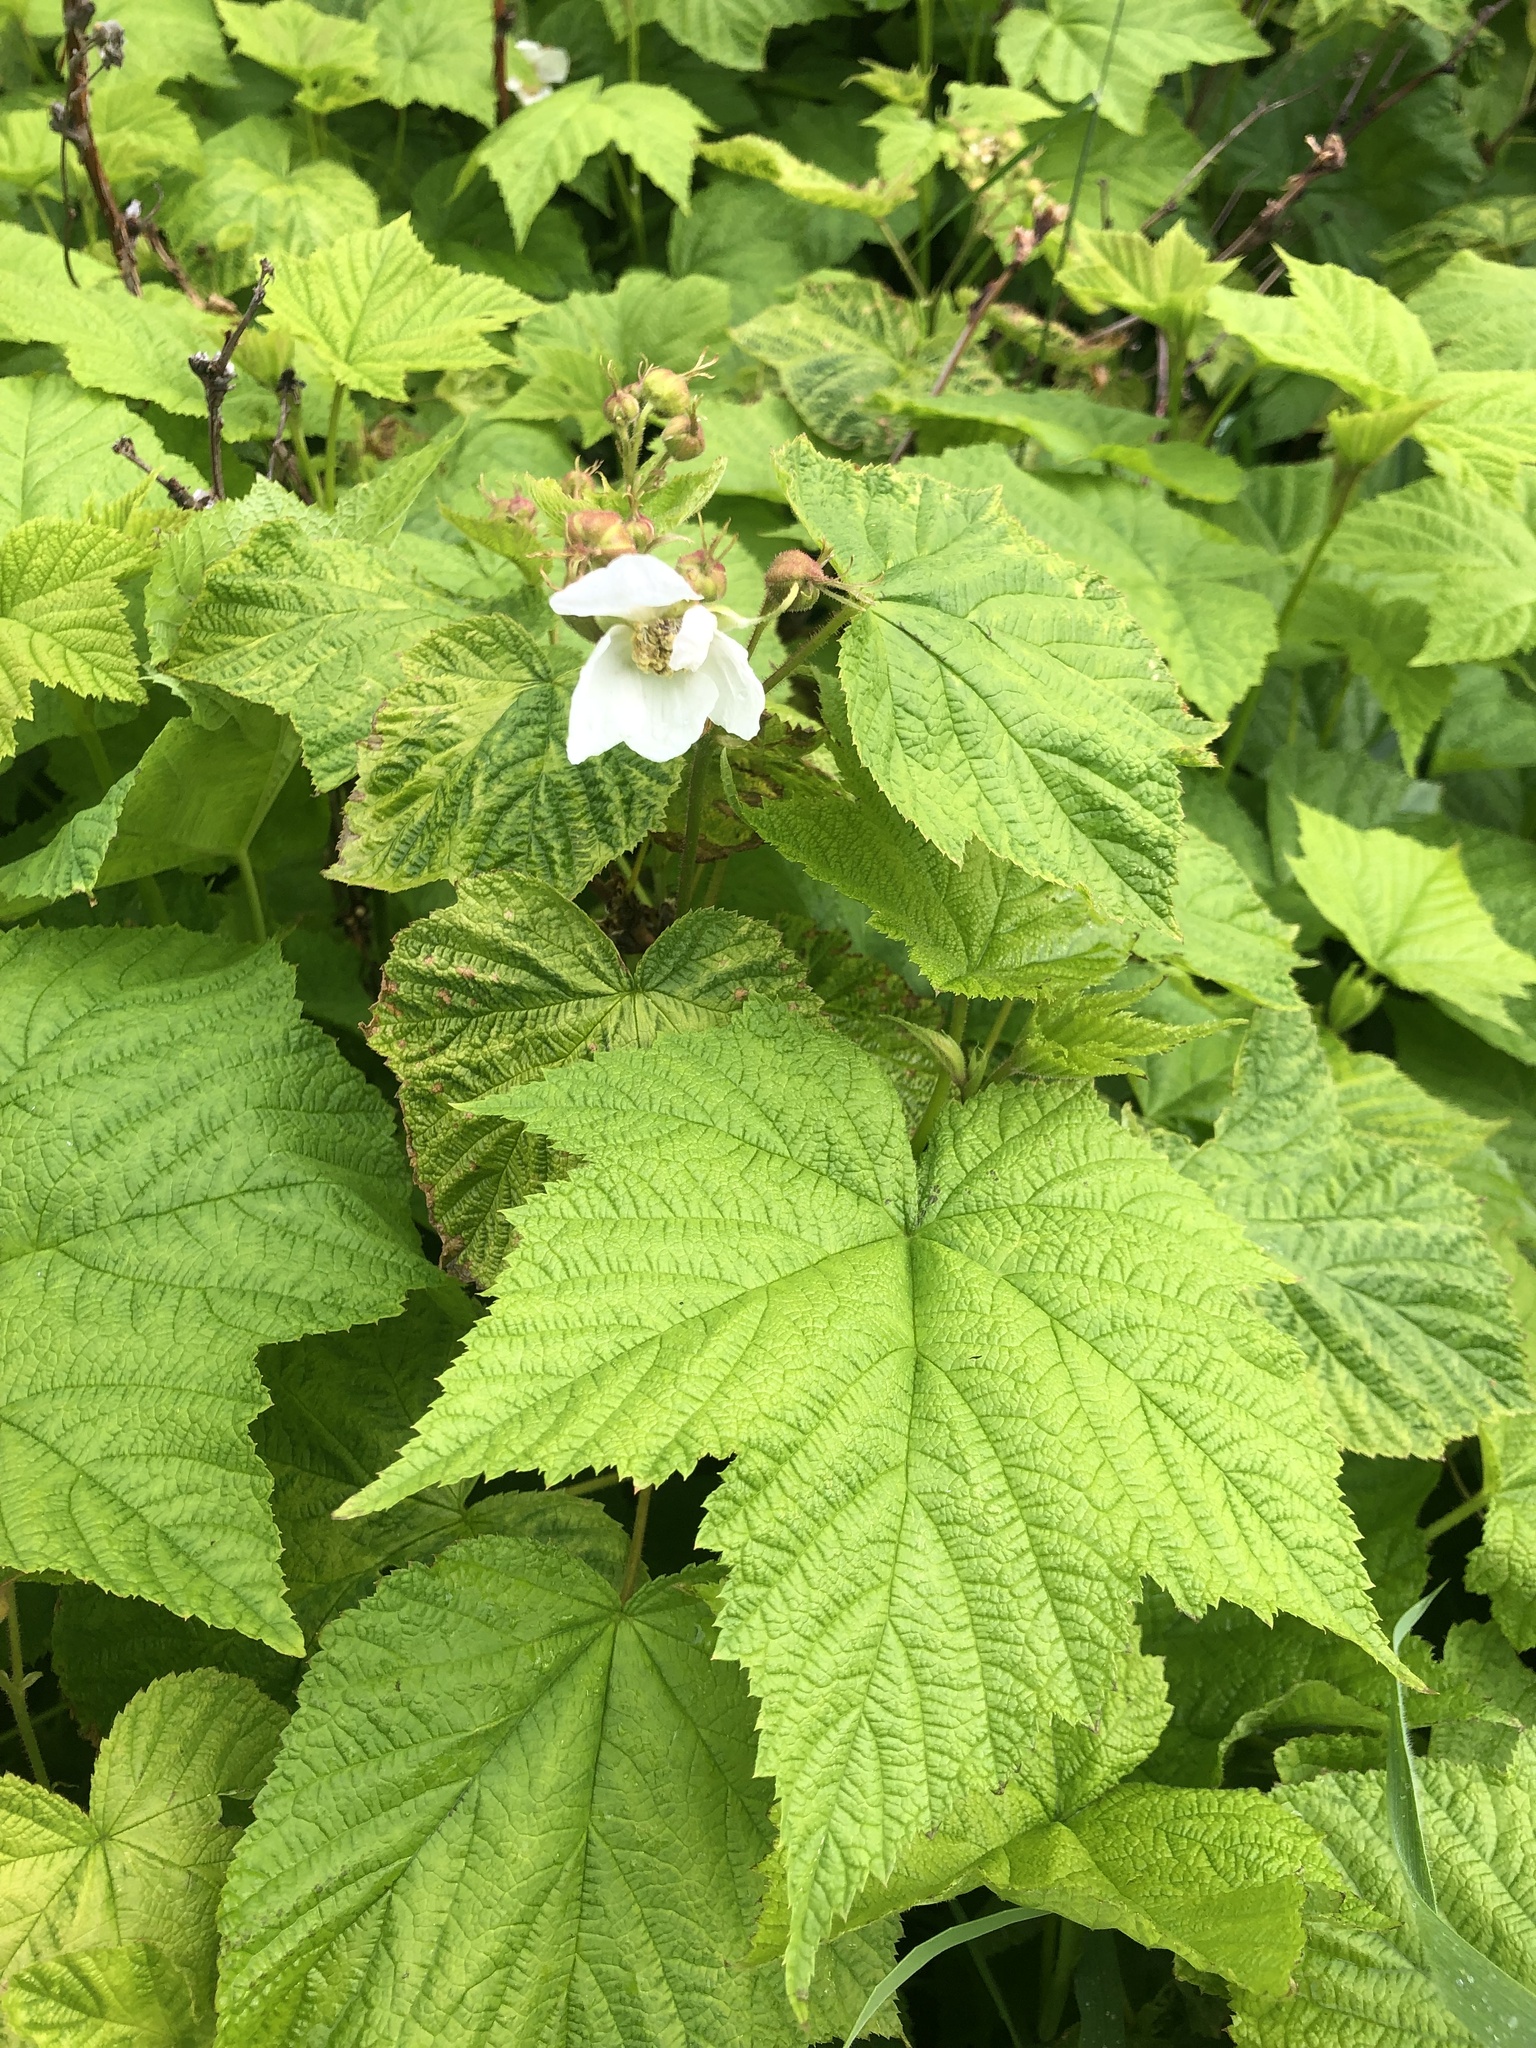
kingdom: Plantae
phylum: Tracheophyta
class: Magnoliopsida
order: Rosales
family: Rosaceae
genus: Rubus
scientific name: Rubus parviflorus
